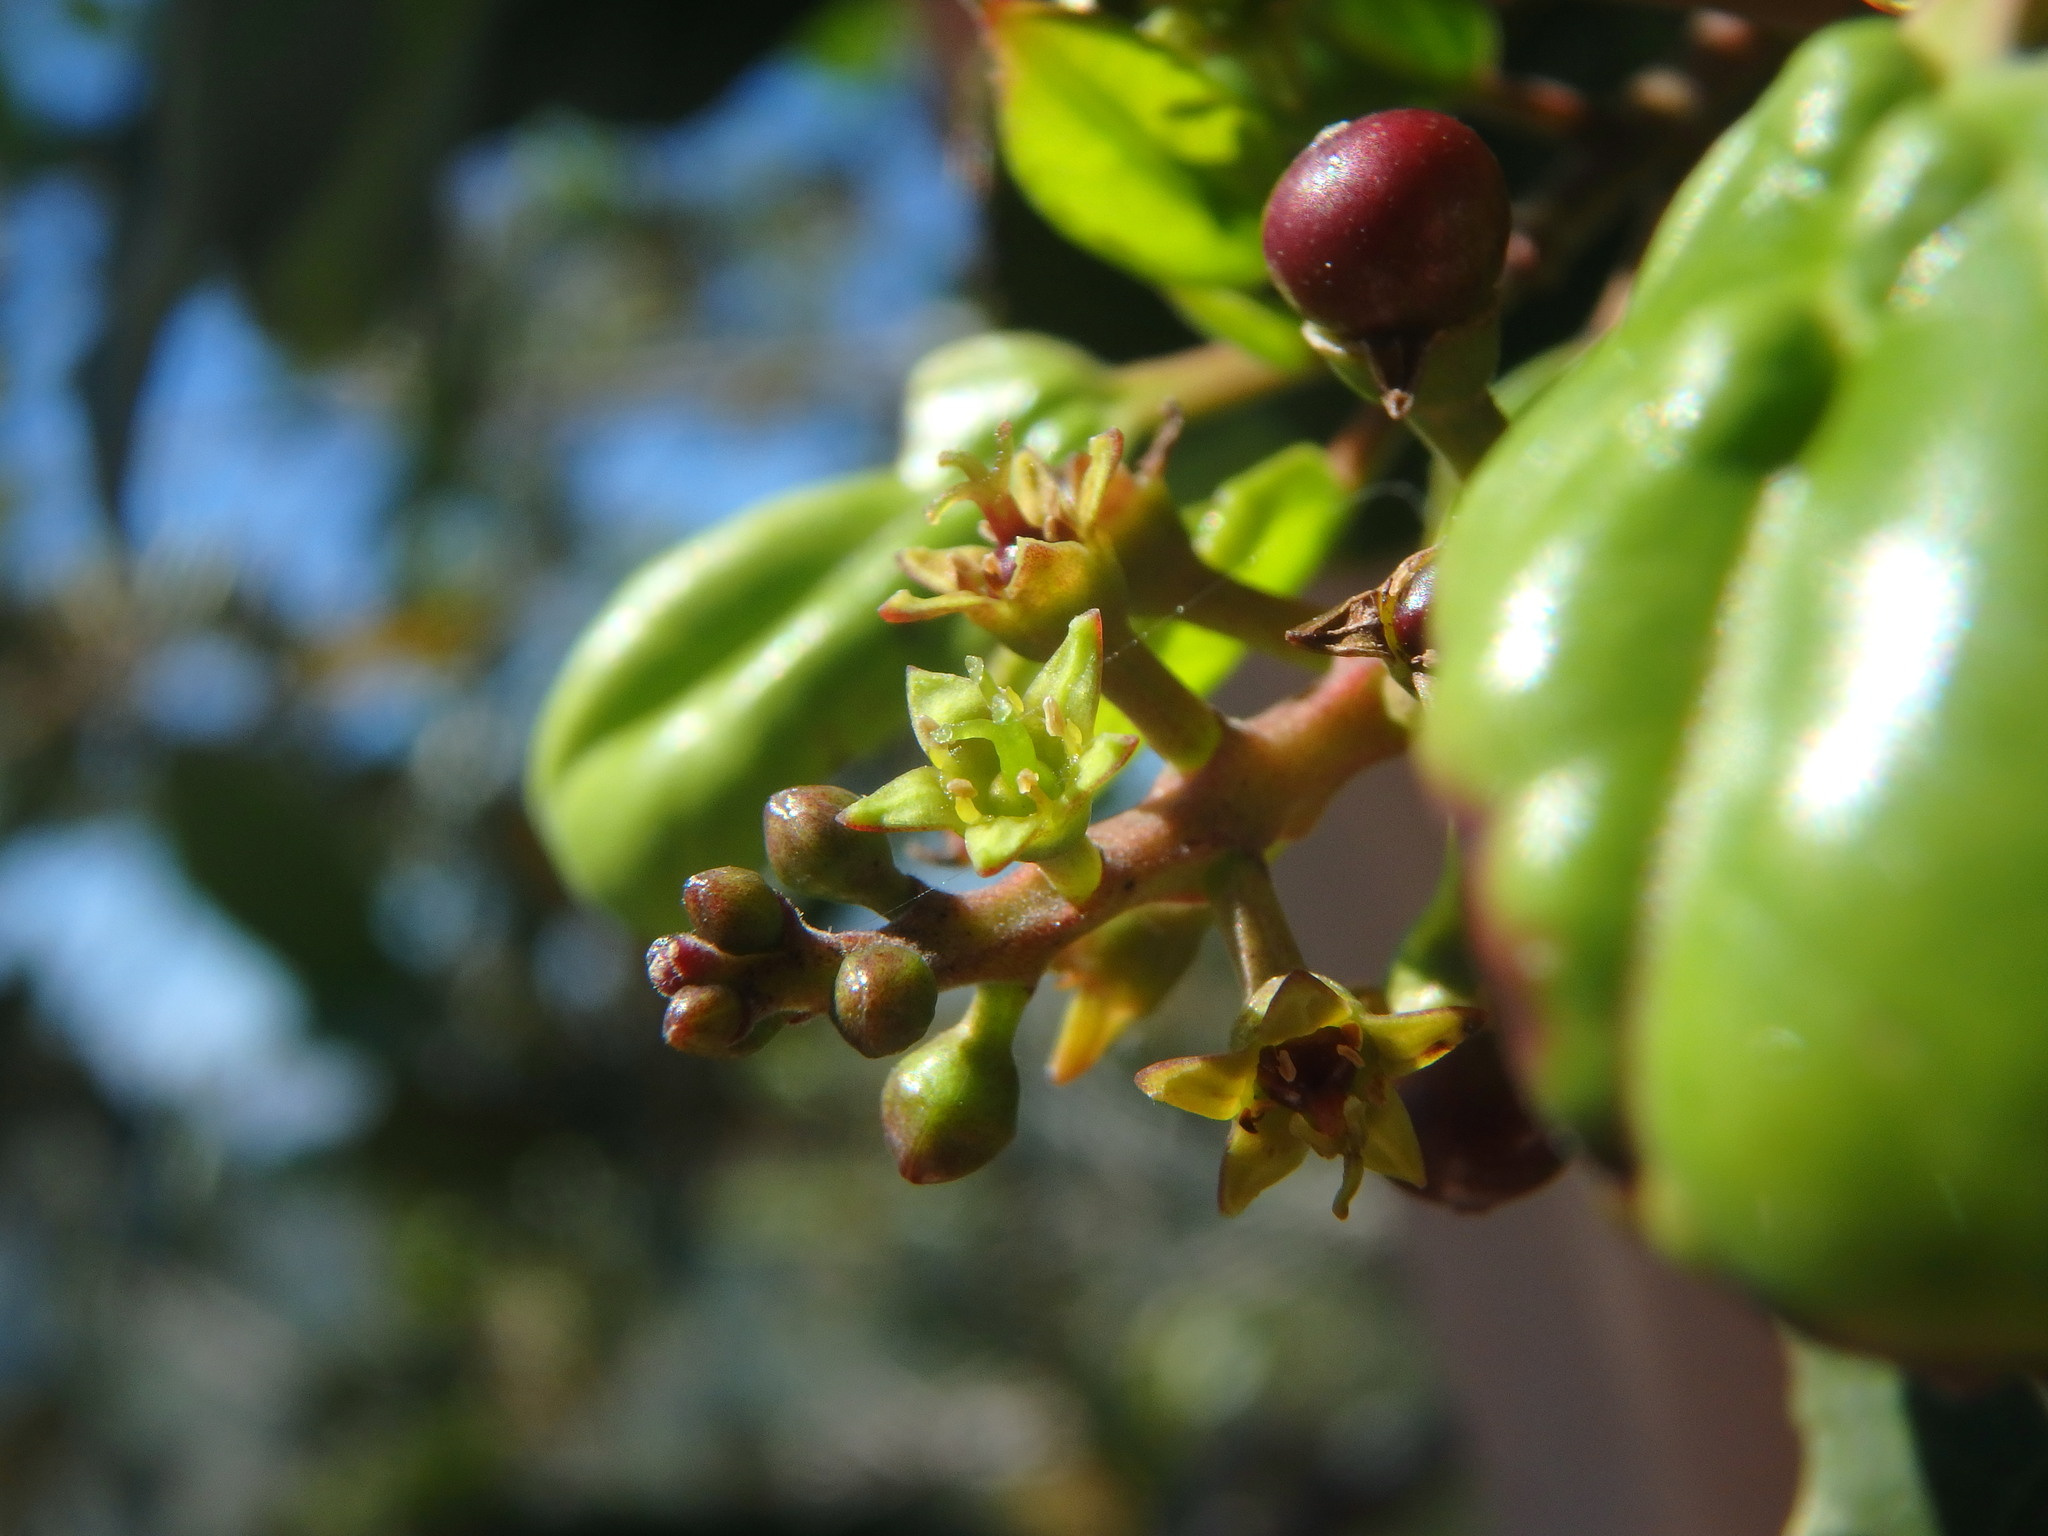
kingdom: Plantae
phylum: Tracheophyta
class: Magnoliopsida
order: Rosales
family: Rhamnaceae
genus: Rhamnus
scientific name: Rhamnus glandulosa
